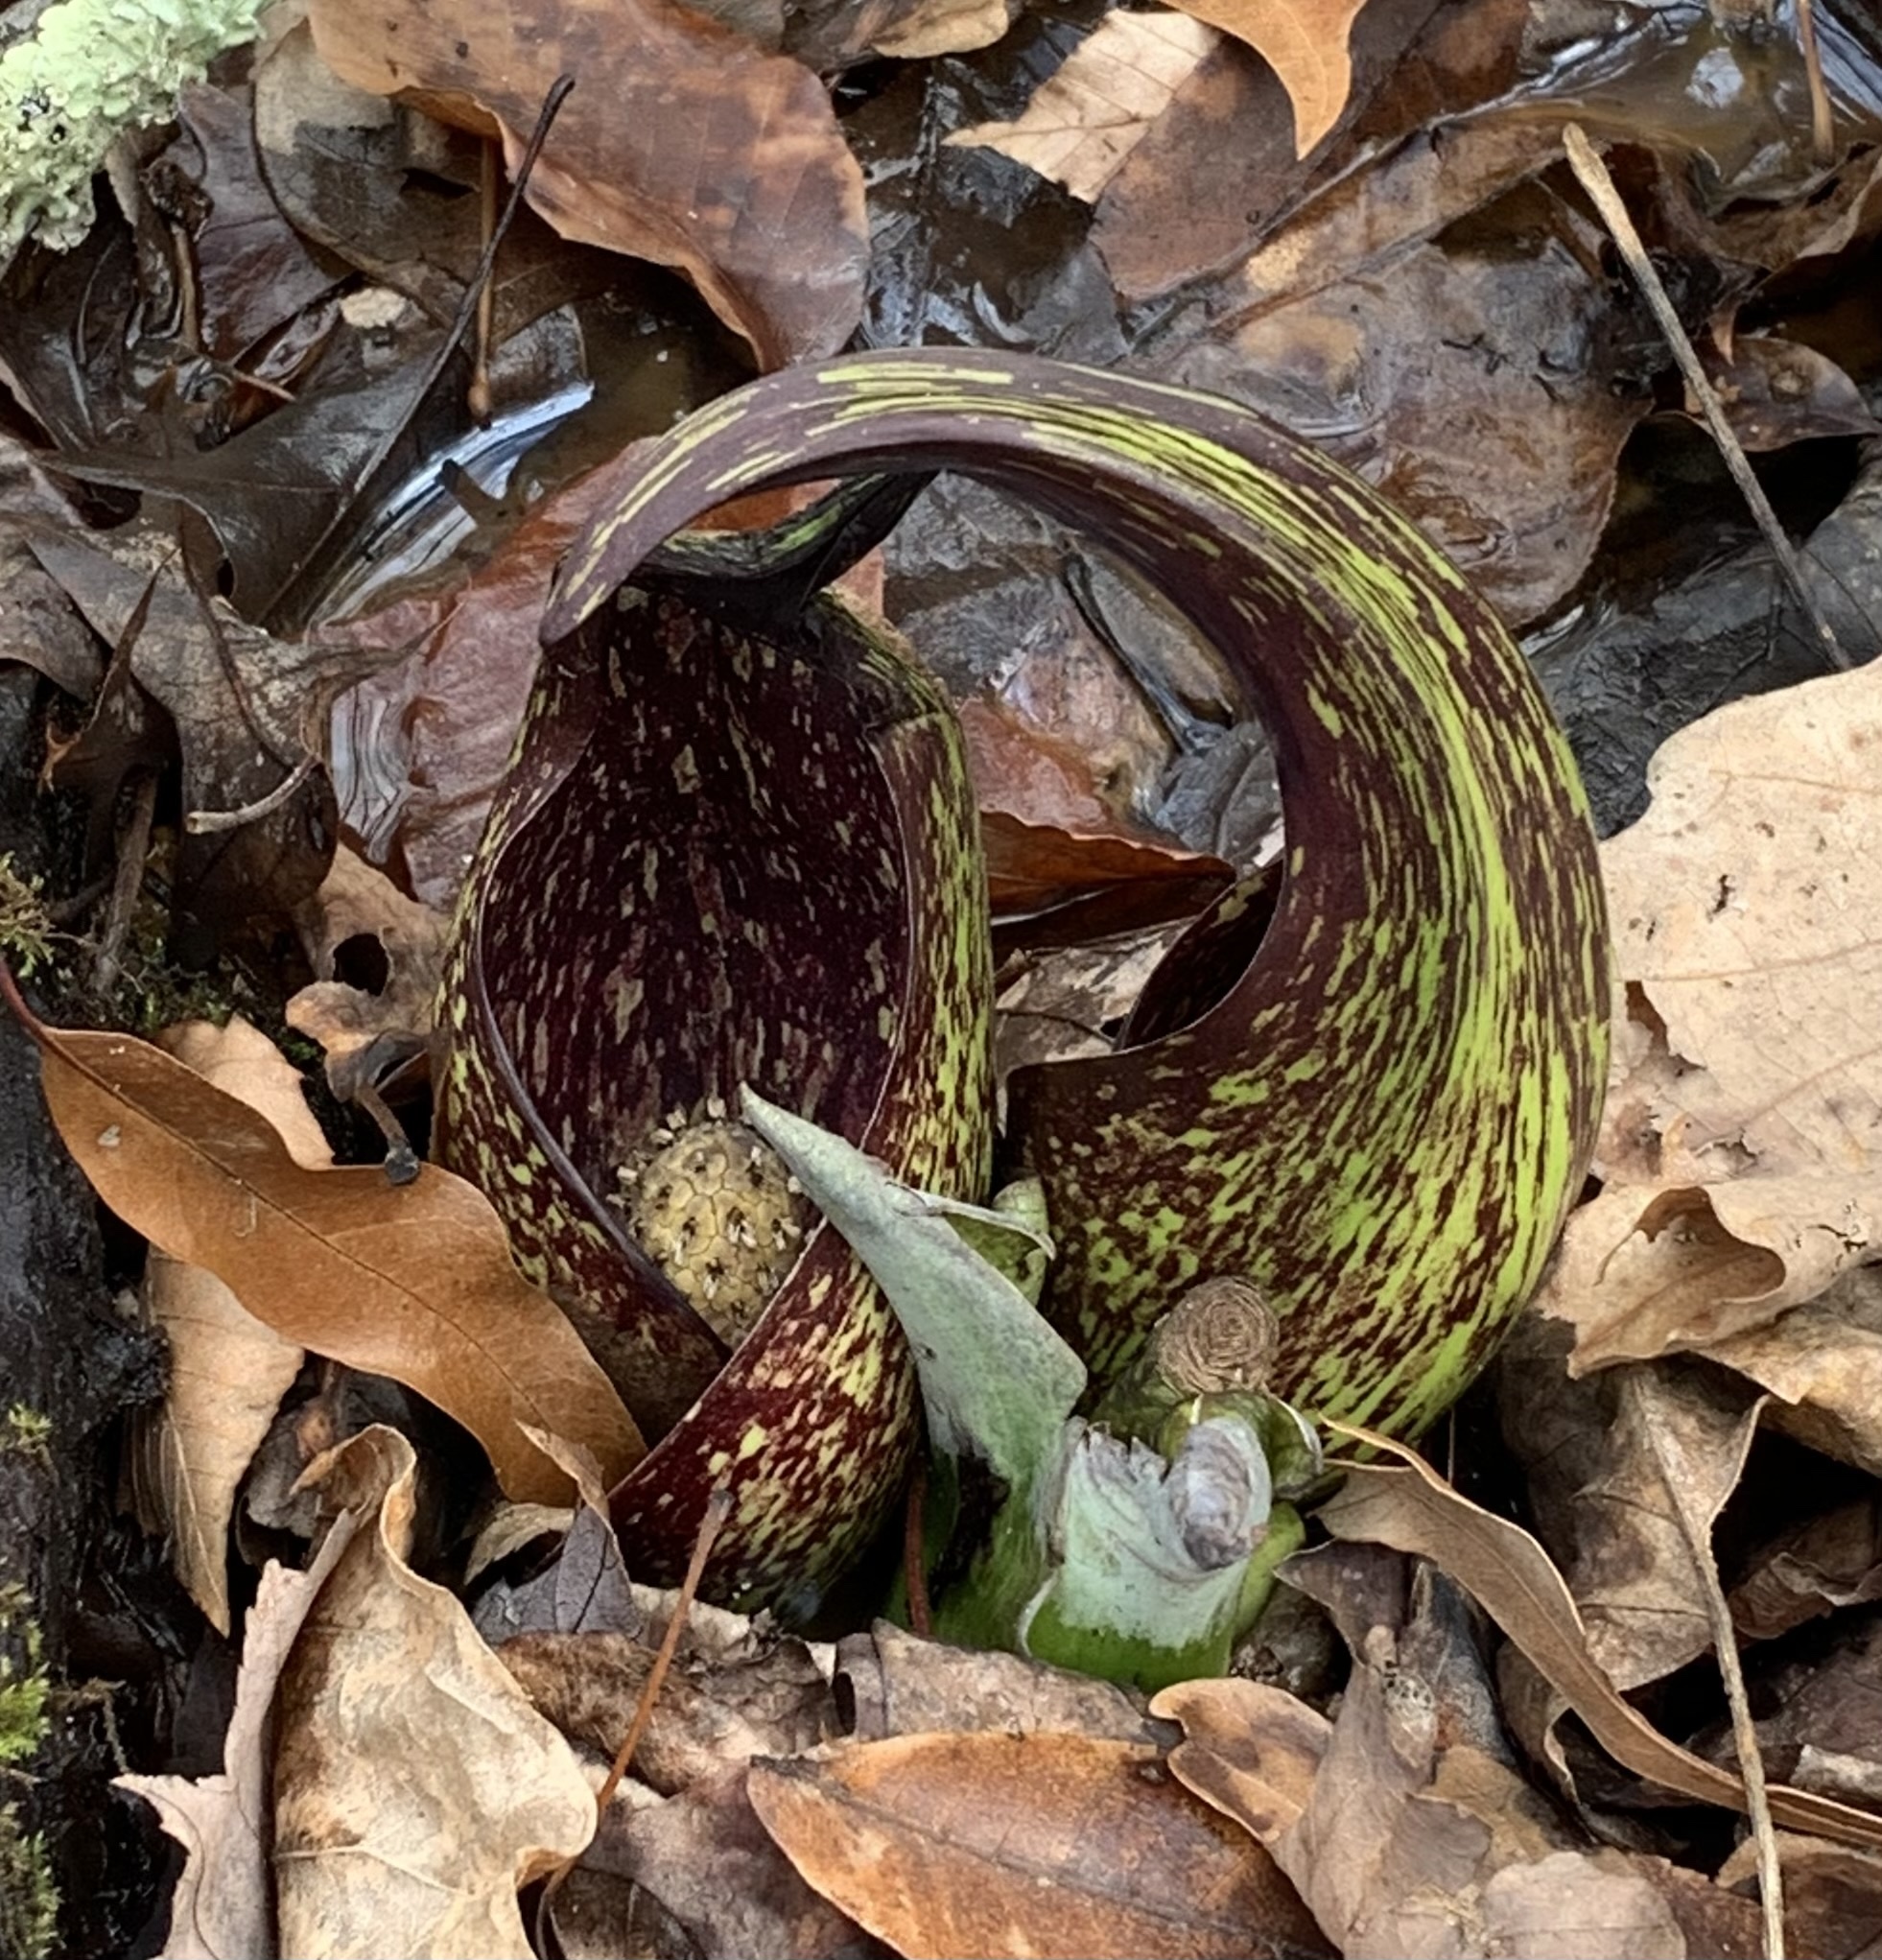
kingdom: Plantae
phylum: Tracheophyta
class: Liliopsida
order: Alismatales
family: Araceae
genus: Symplocarpus
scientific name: Symplocarpus foetidus
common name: Eastern skunk cabbage
